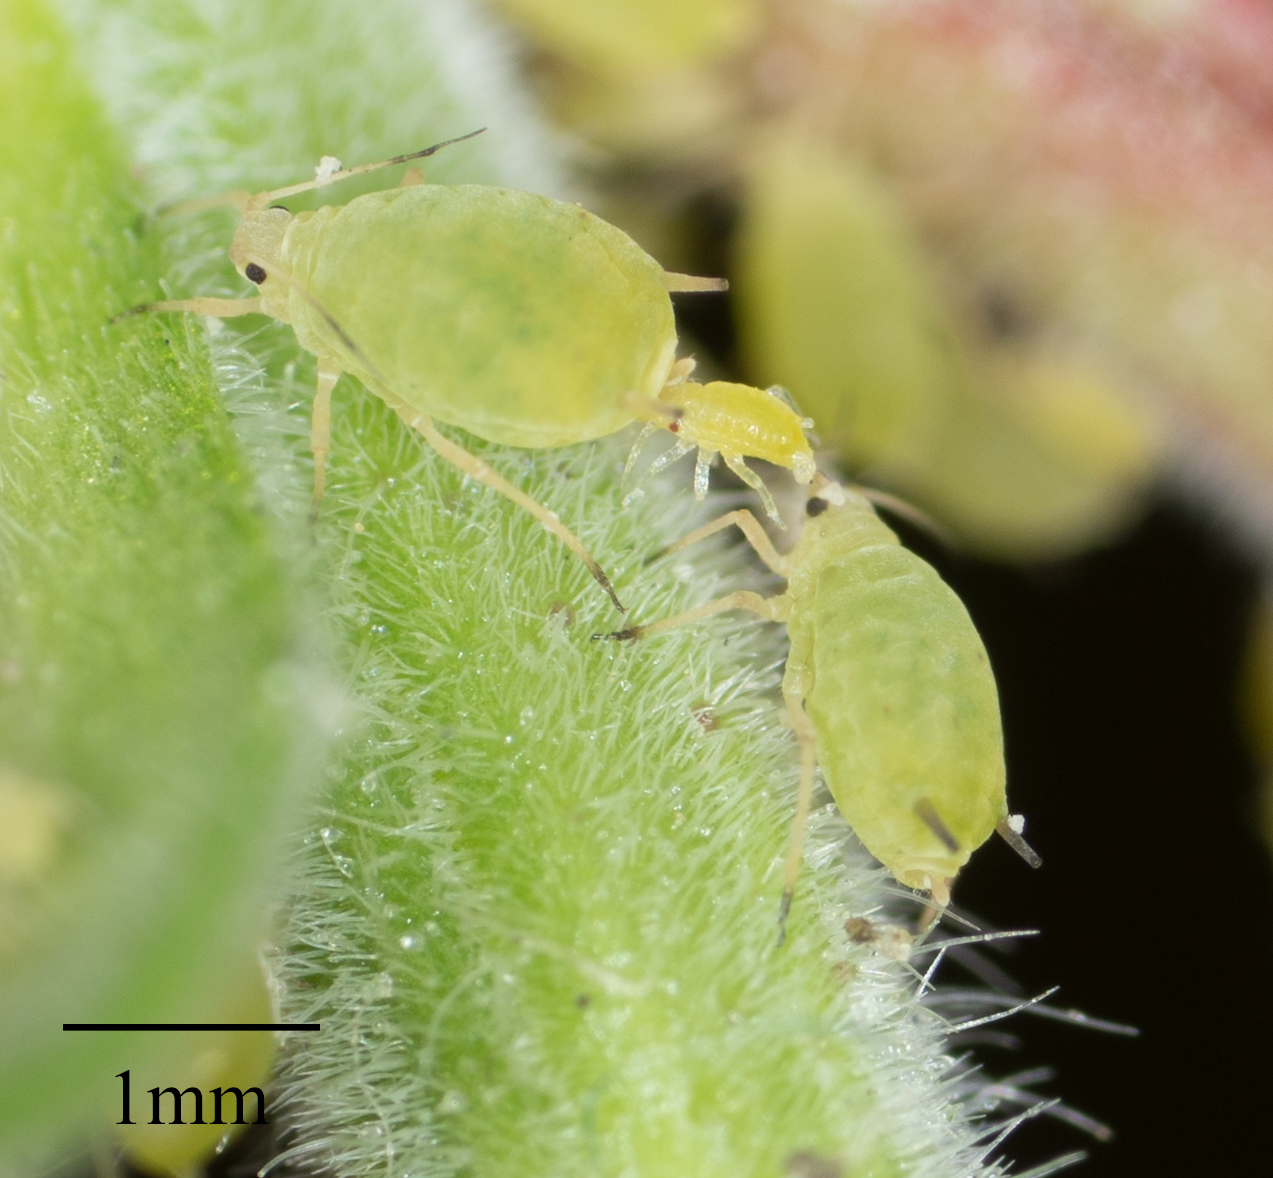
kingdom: Animalia
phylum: Arthropoda
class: Insecta
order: Hemiptera
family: Aphididae
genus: Aphis
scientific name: Aphis nasturtii
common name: Buckthorn aphid
